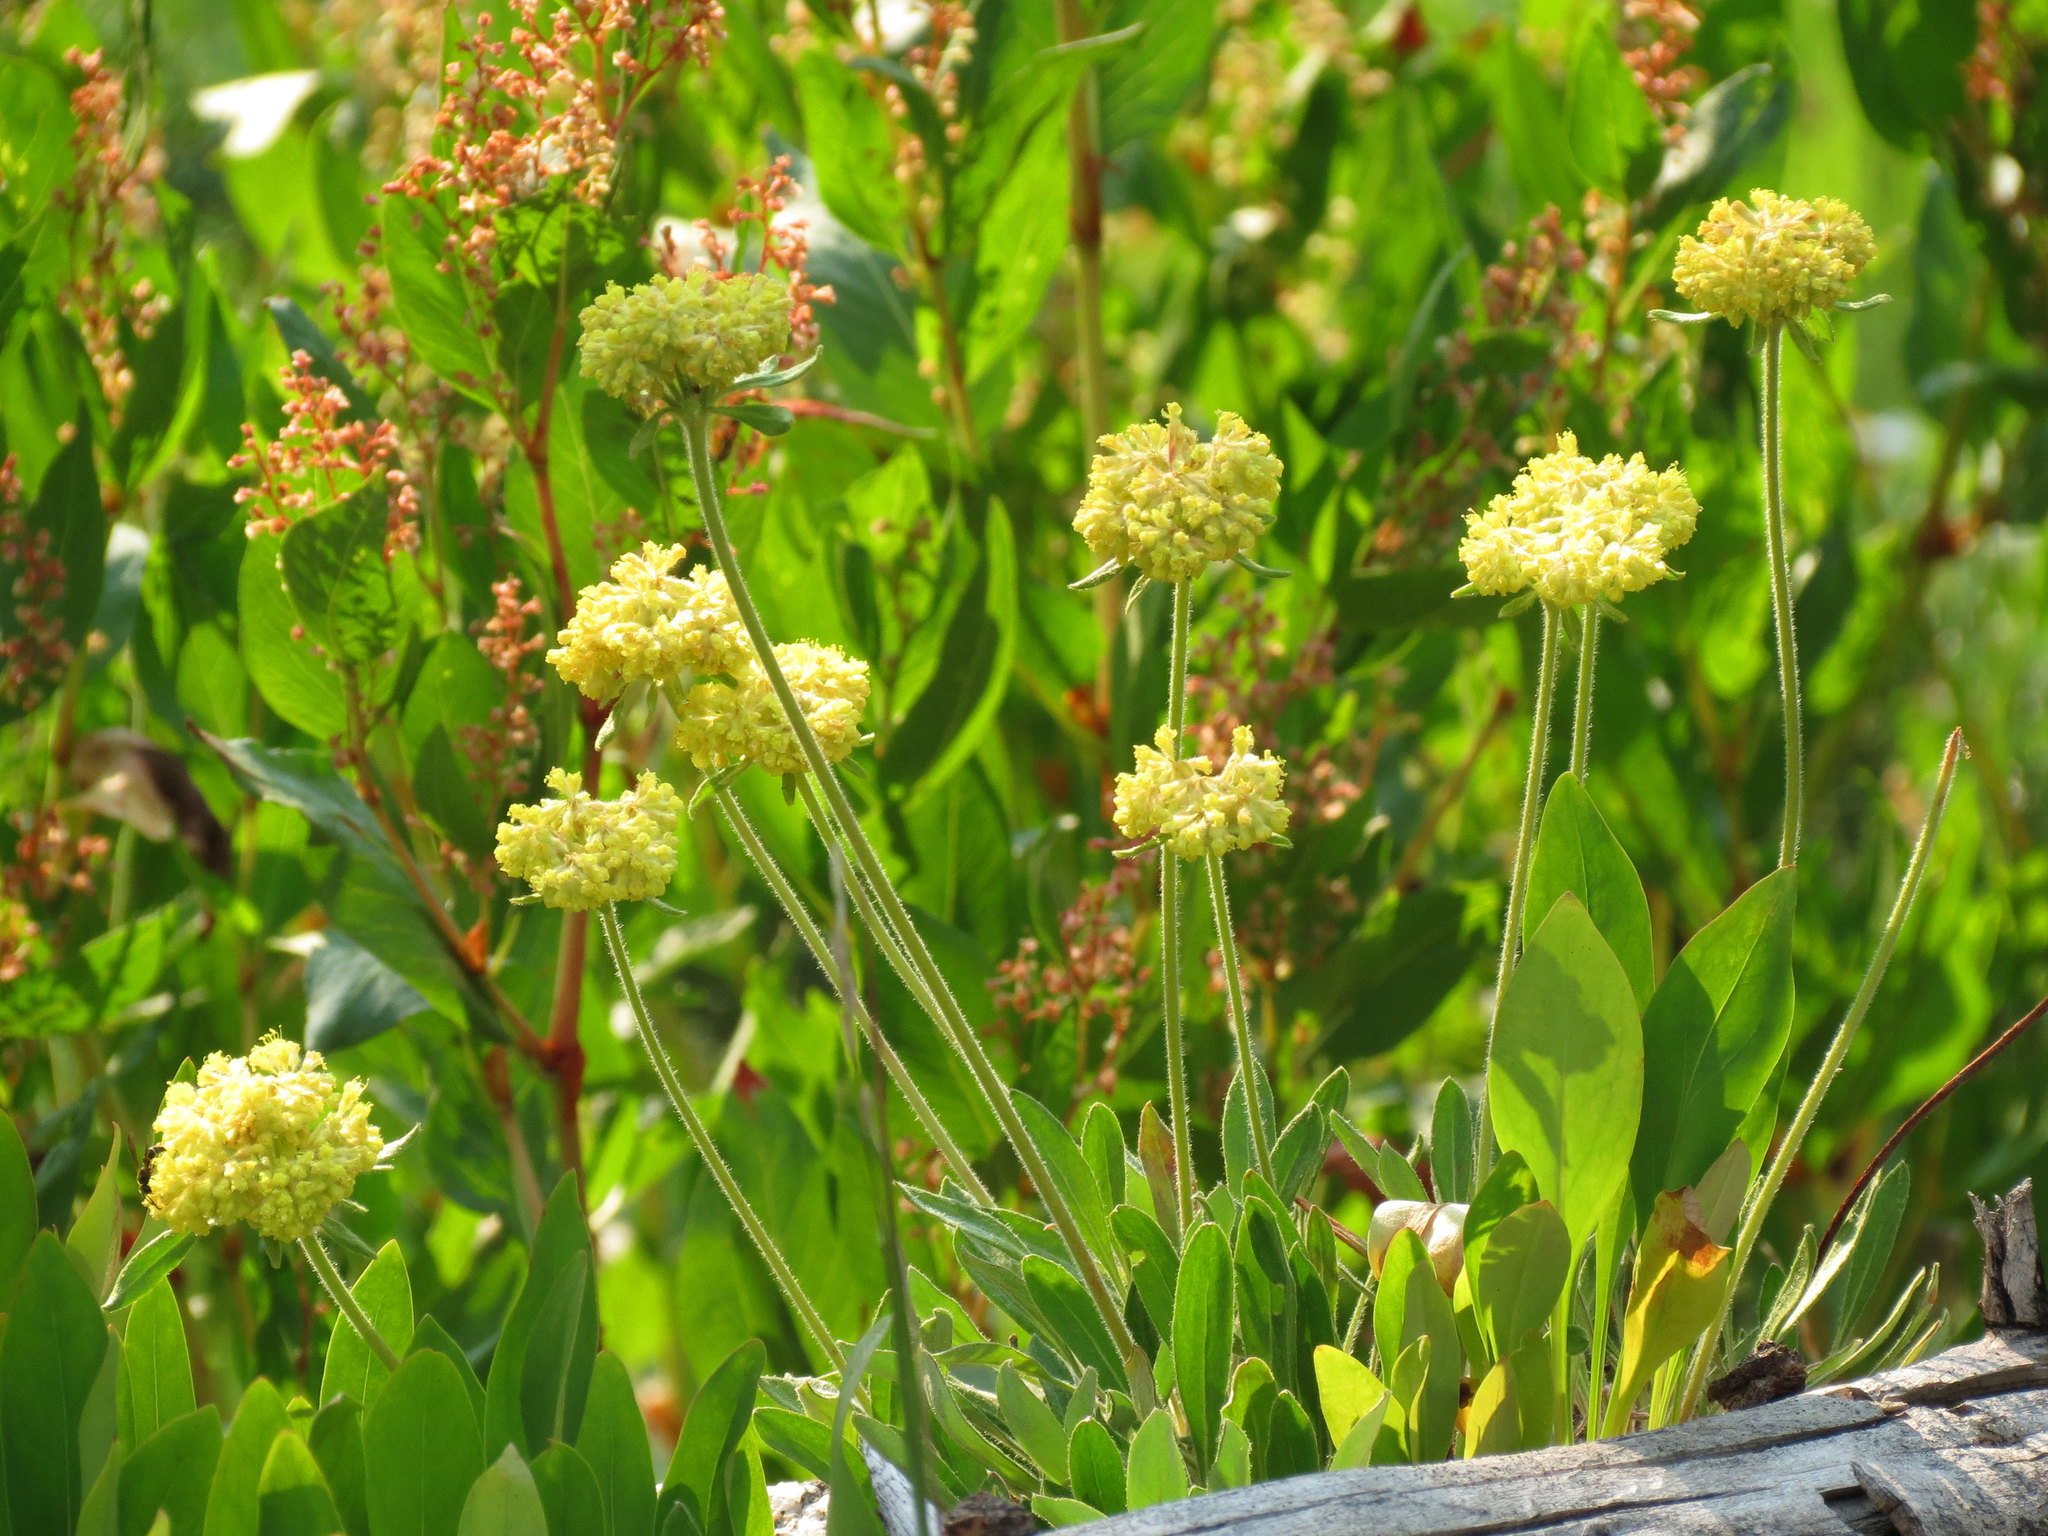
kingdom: Plantae
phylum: Tracheophyta
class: Magnoliopsida
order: Caryophyllales
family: Polygonaceae
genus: Eriogonum
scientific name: Eriogonum flavum
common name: Alpine golden wild buckwheat
